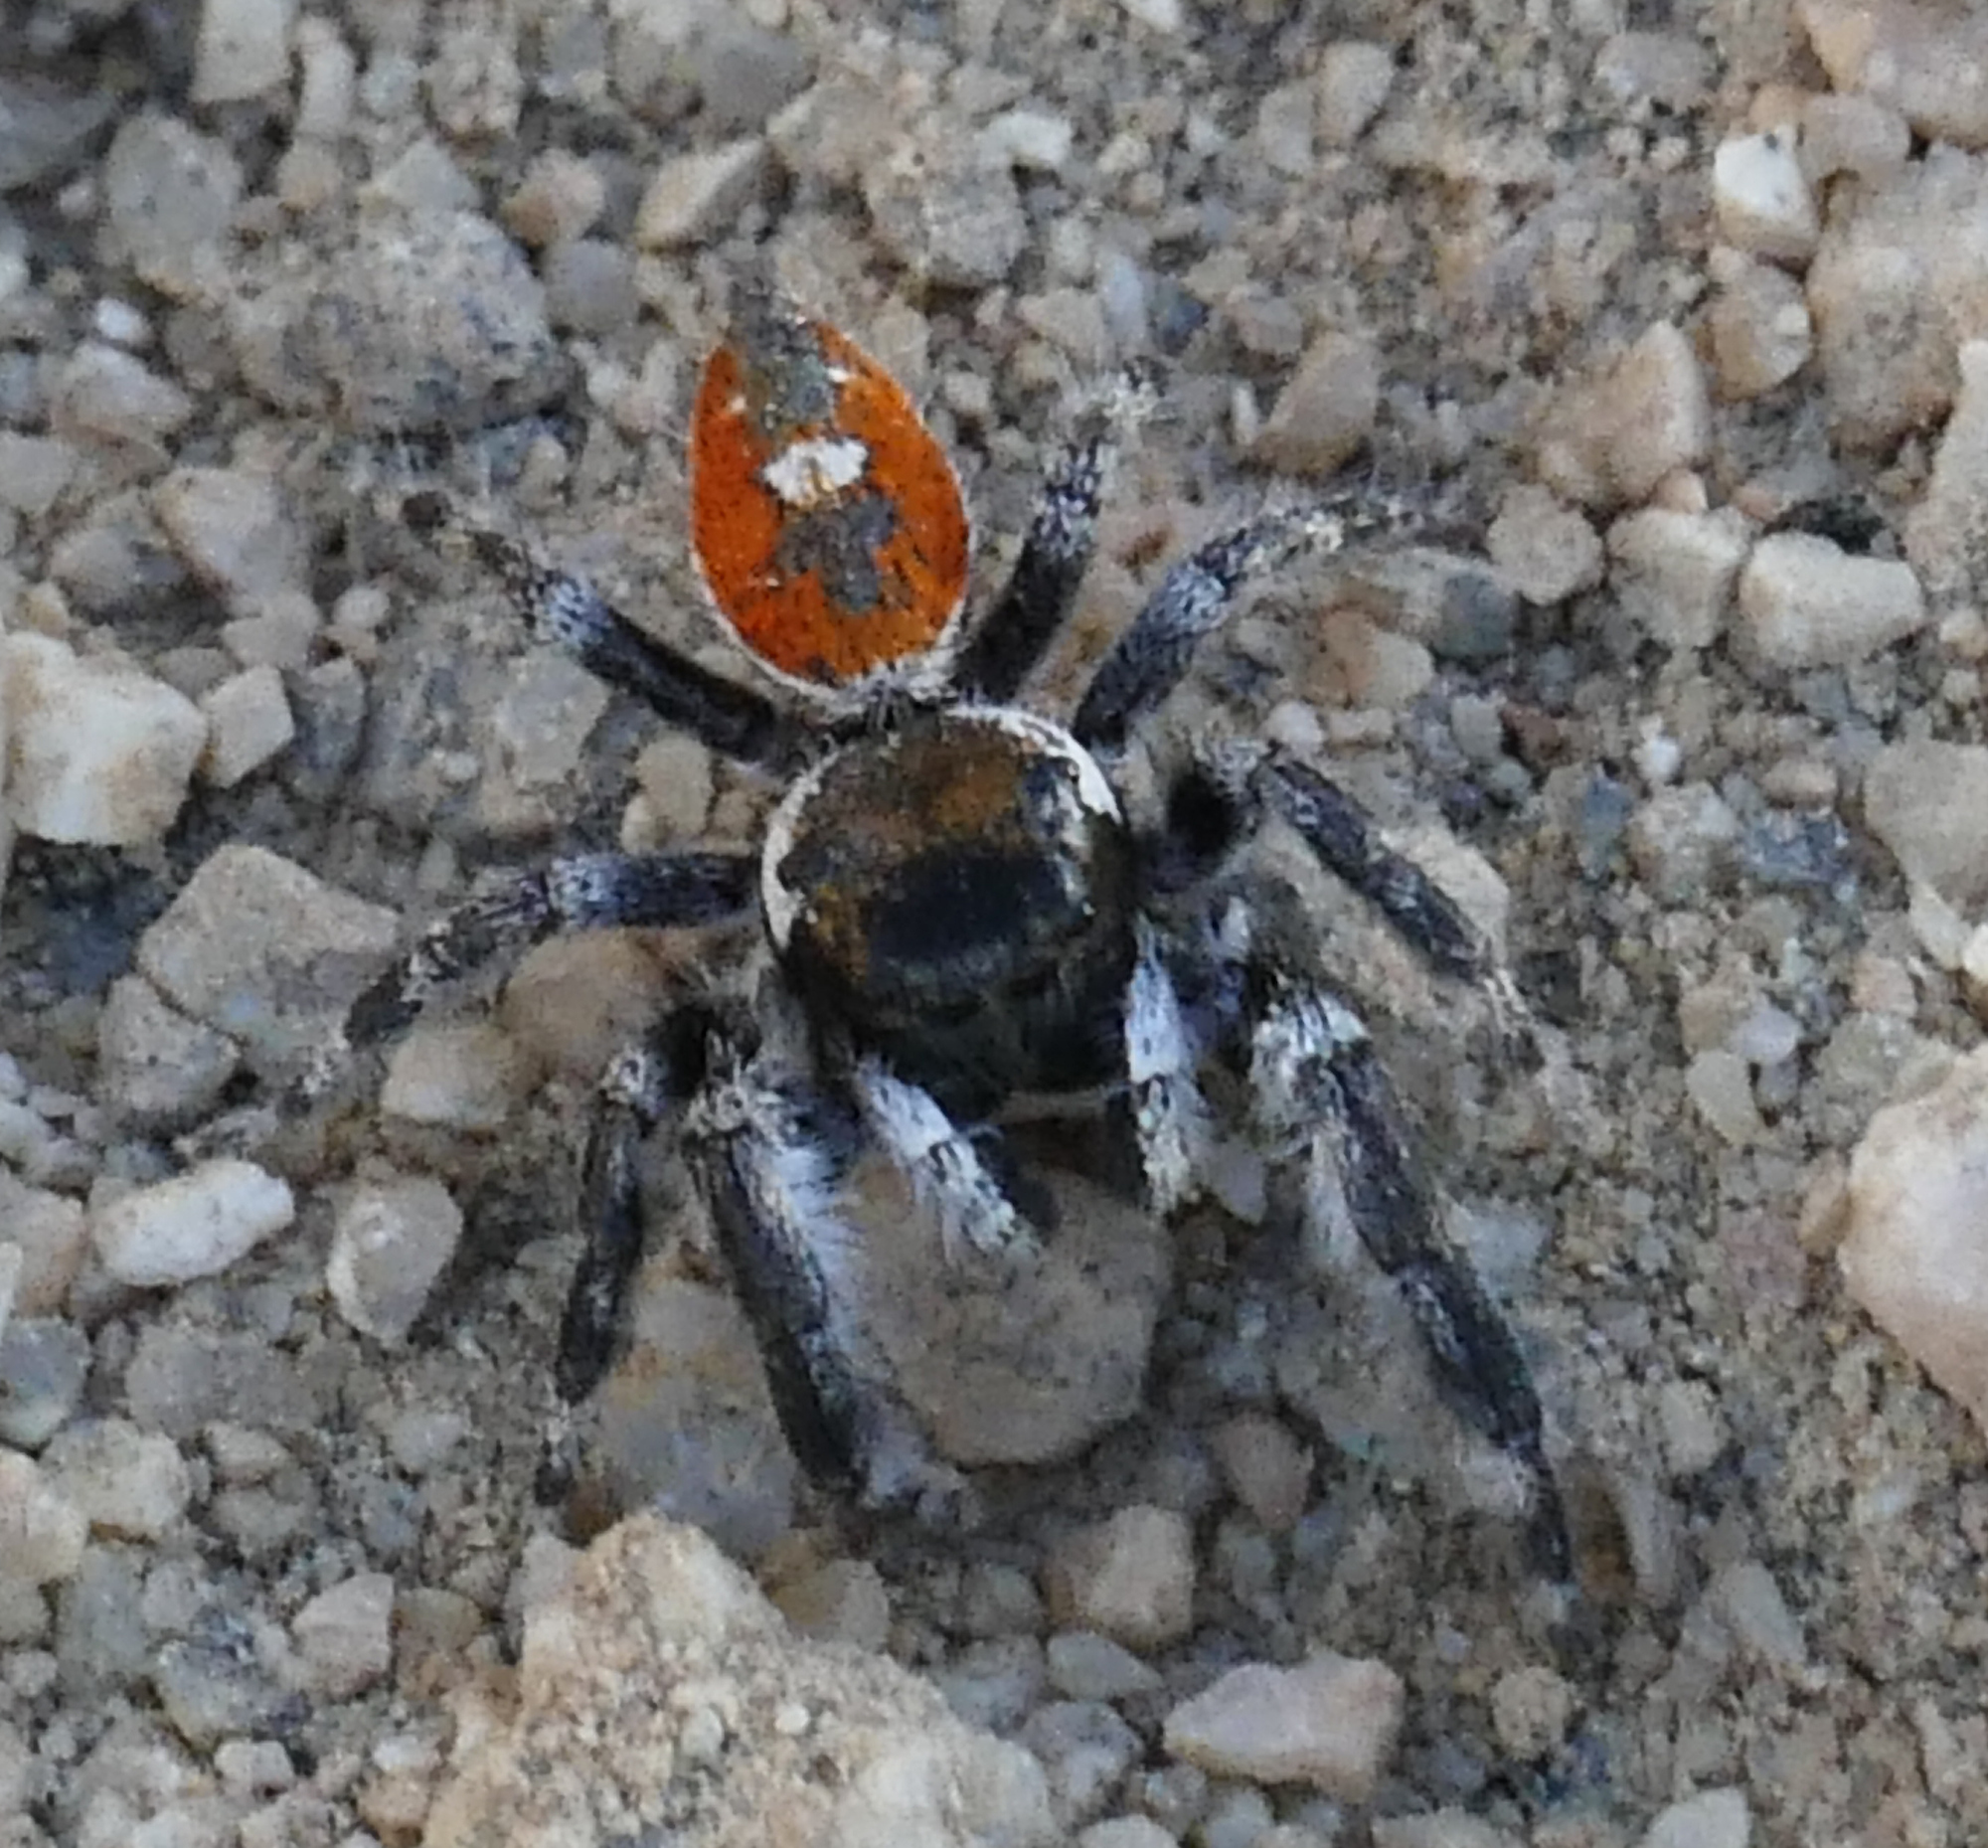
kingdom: Animalia
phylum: Arthropoda
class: Arachnida
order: Araneae
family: Salticidae
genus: Phidippus
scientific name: Phidippus californicus
